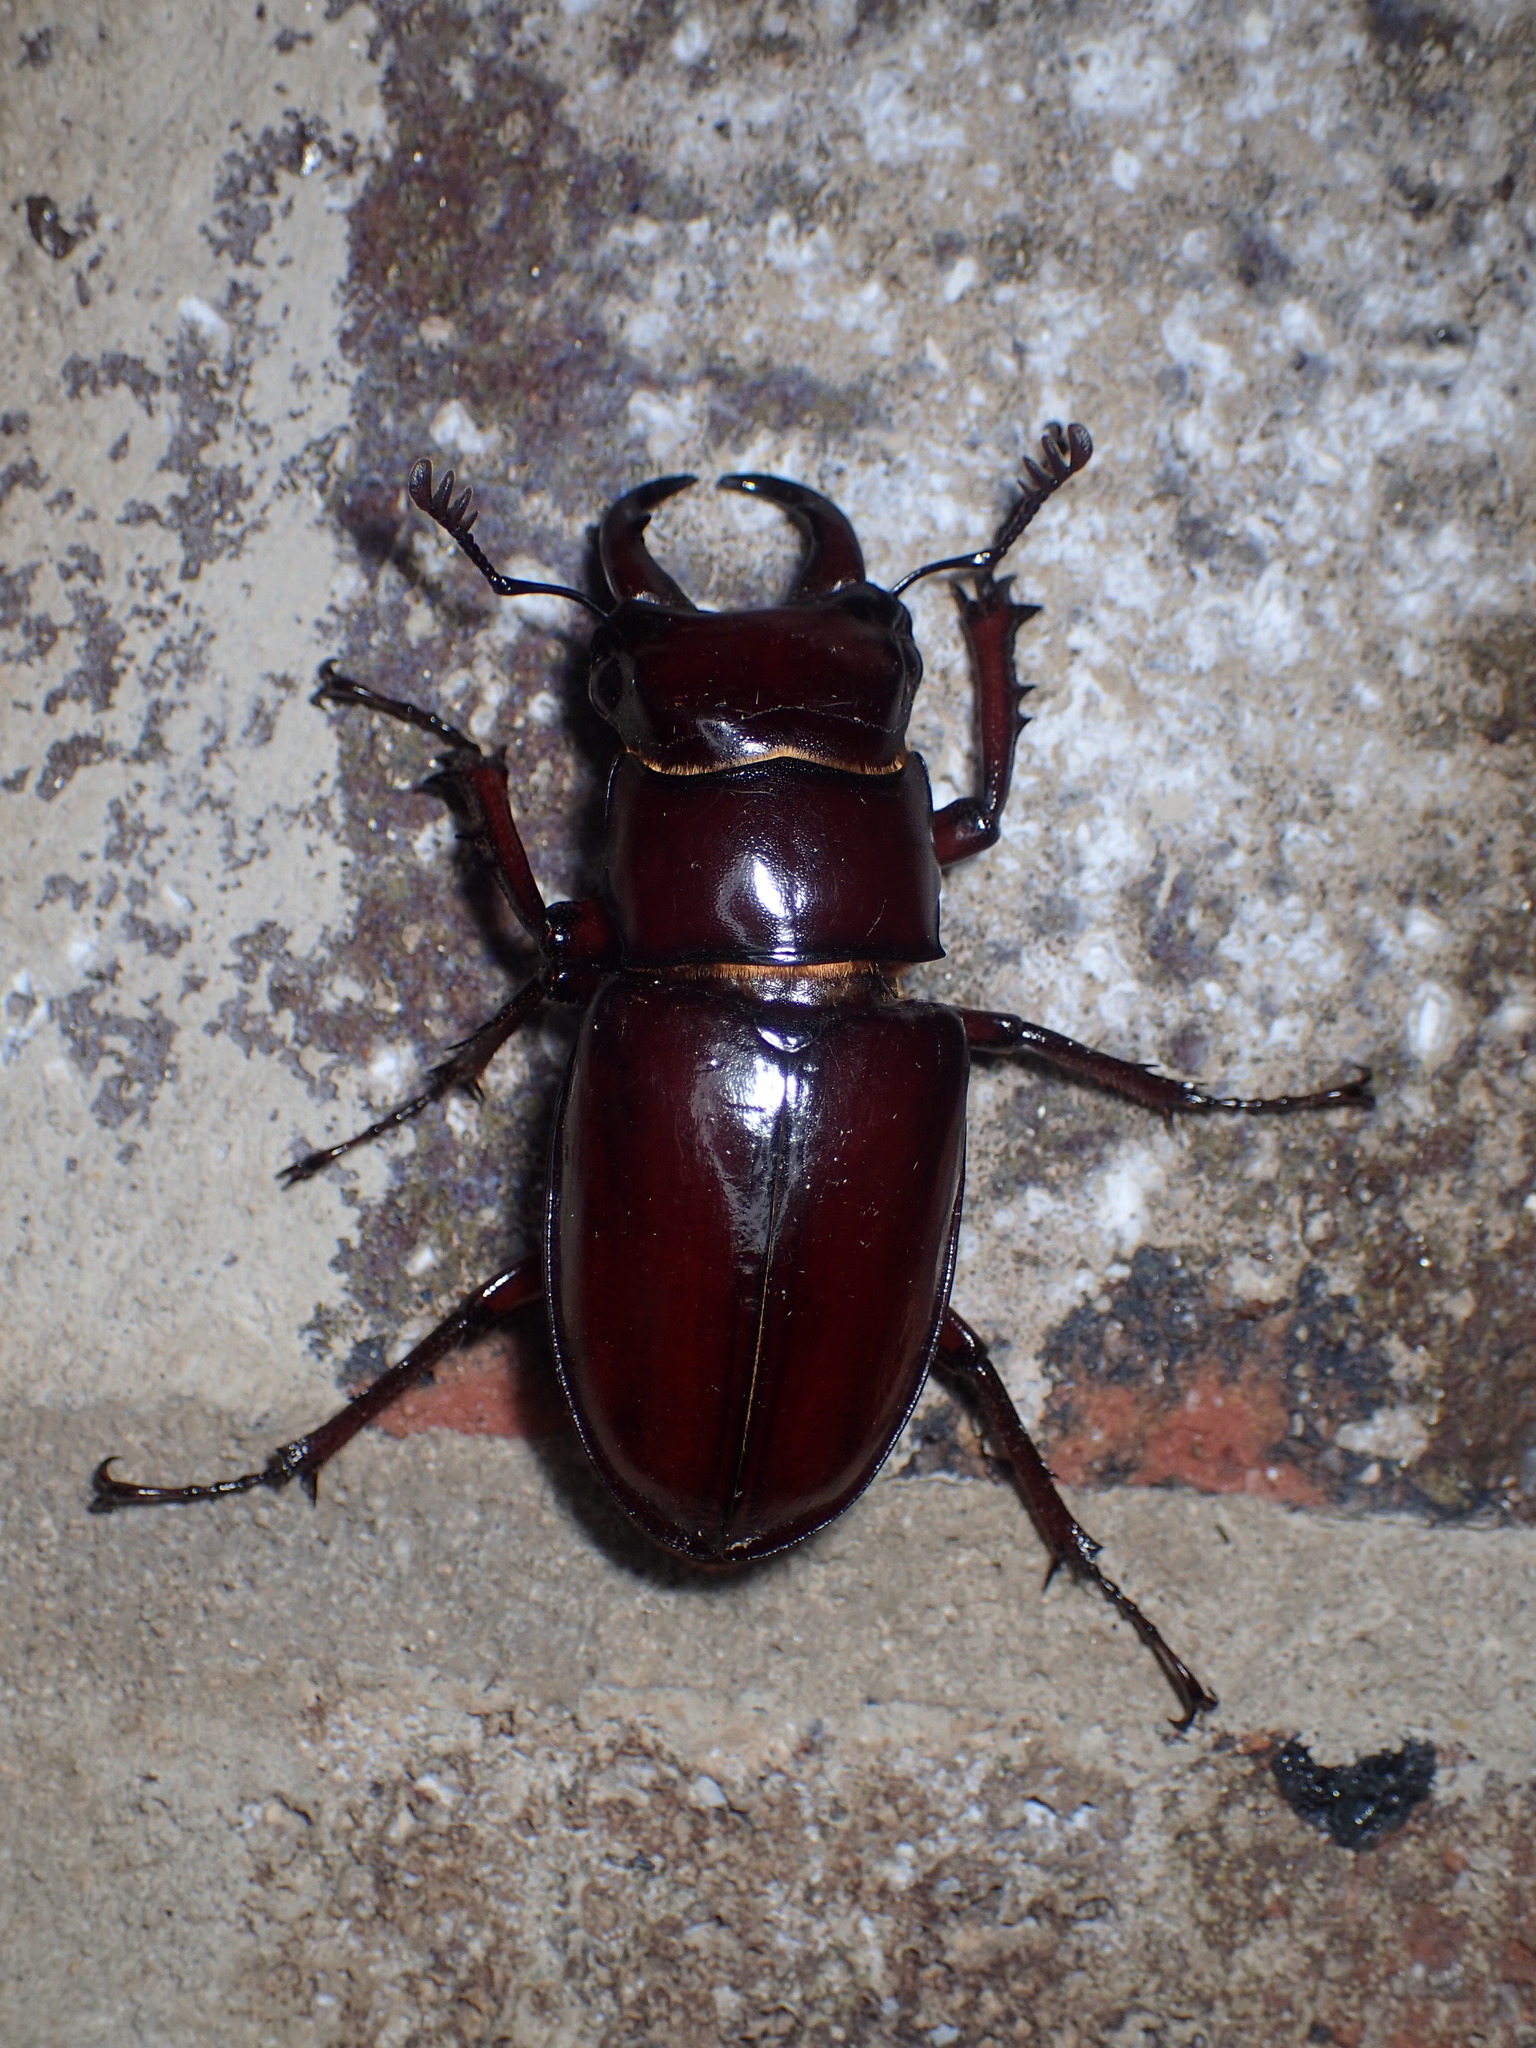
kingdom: Animalia
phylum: Arthropoda
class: Insecta
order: Coleoptera
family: Lucanidae
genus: Lucanus
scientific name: Lucanus capreolus
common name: Stag beetle
